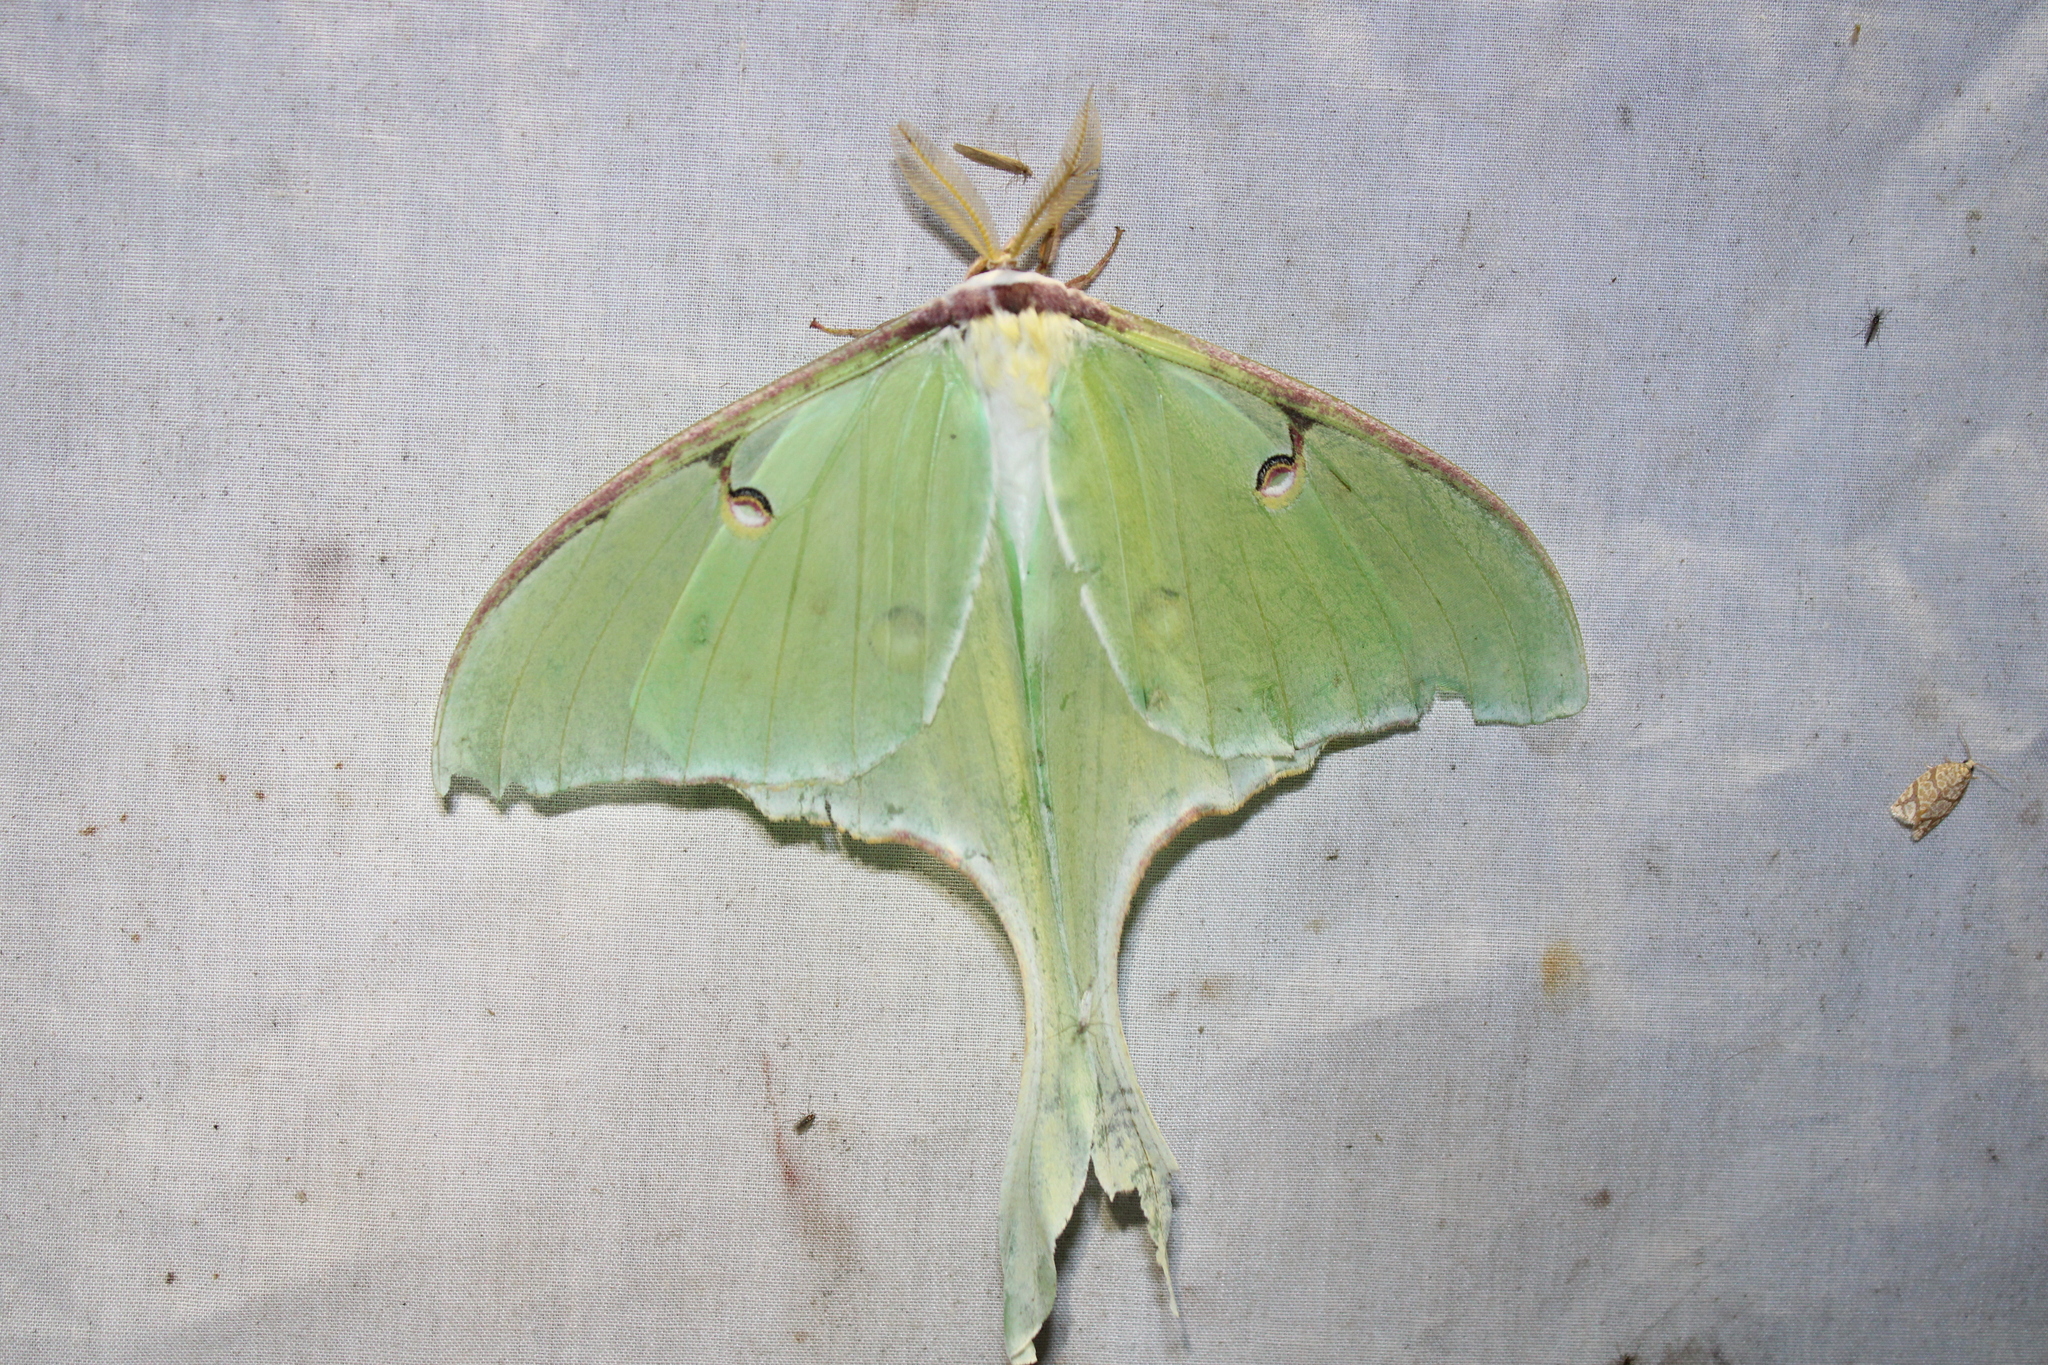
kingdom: Animalia
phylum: Arthropoda
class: Insecta
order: Lepidoptera
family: Saturniidae
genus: Actias
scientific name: Actias luna
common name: Luna moth
